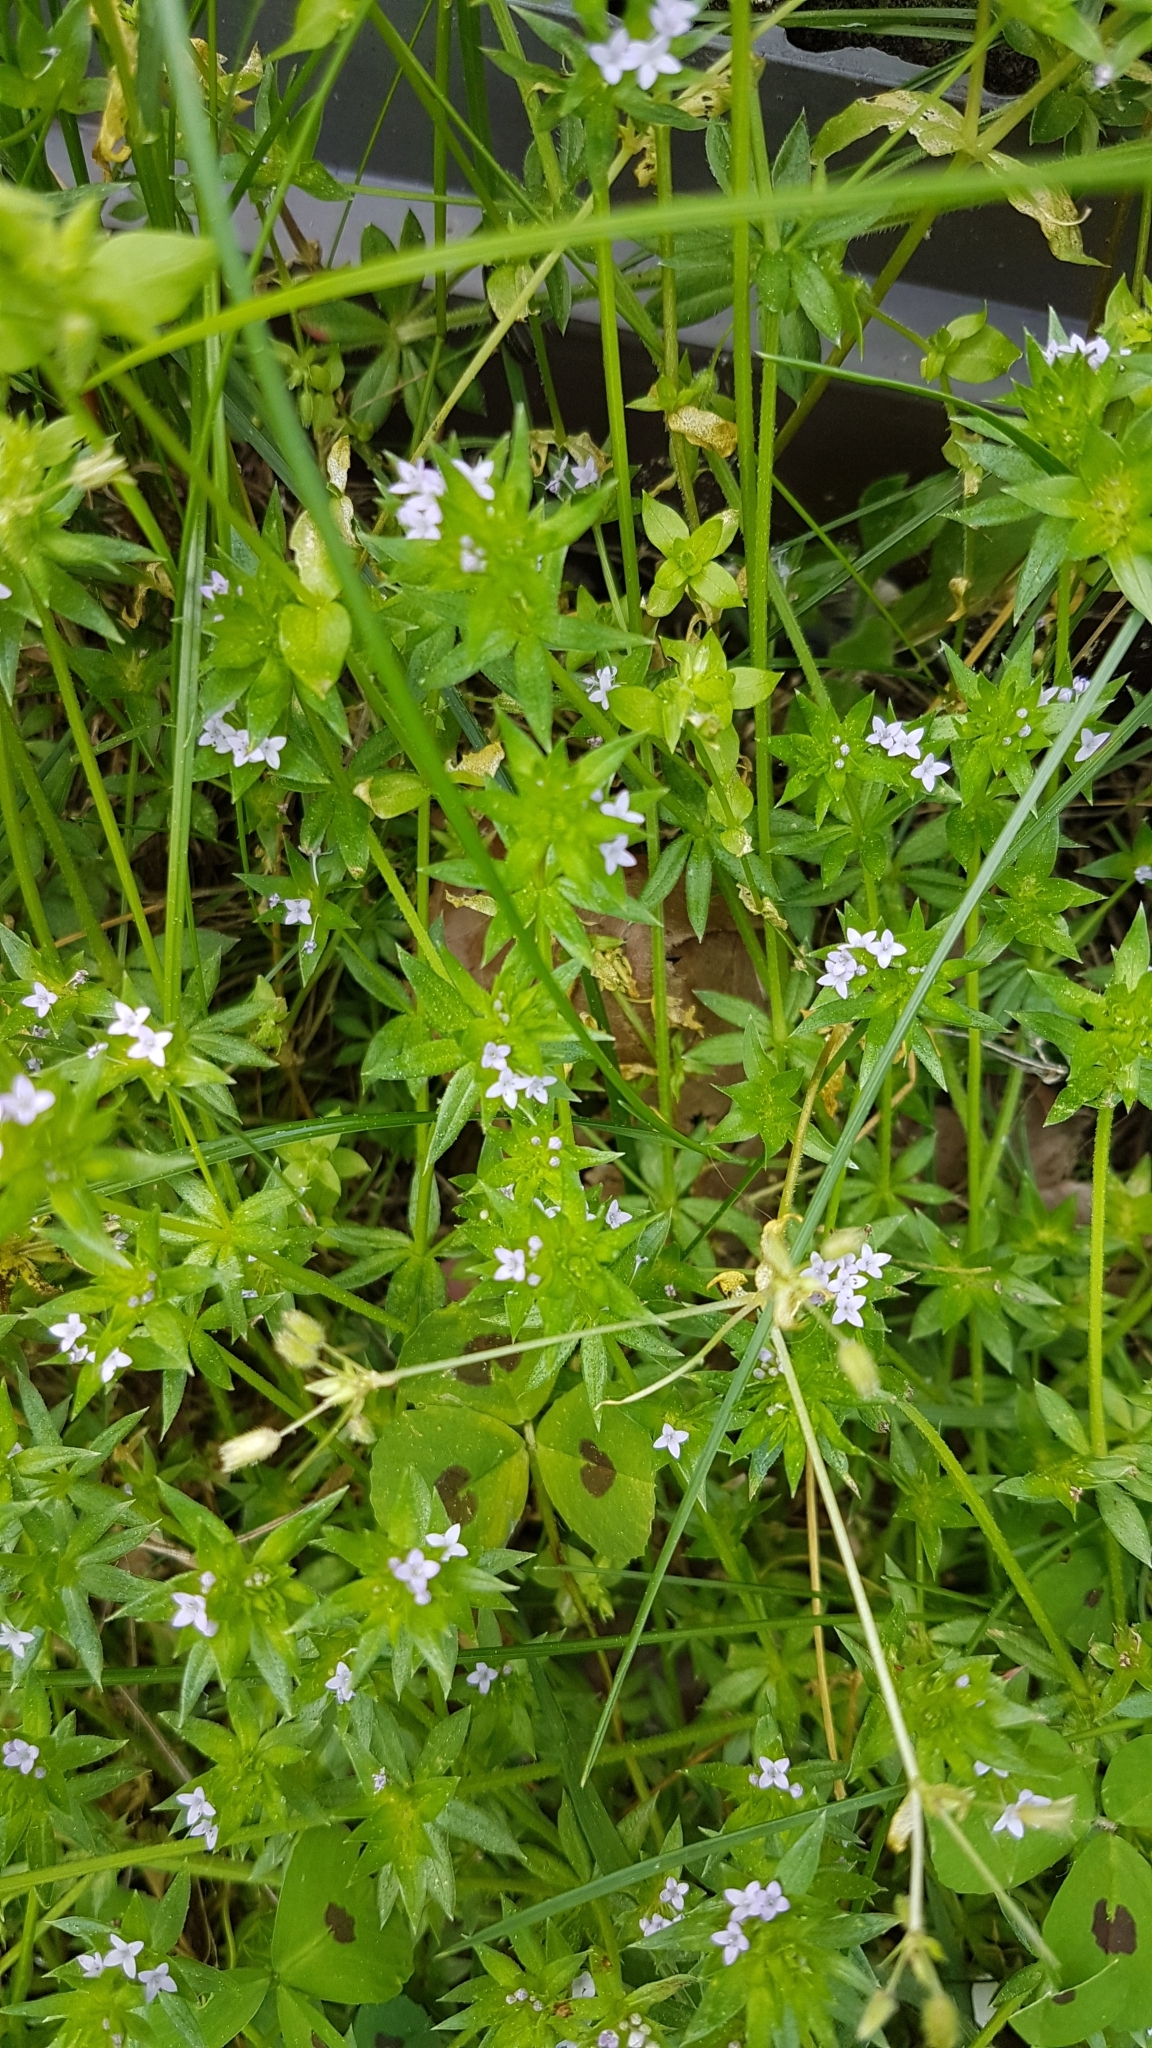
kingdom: Plantae
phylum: Tracheophyta
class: Magnoliopsida
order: Gentianales
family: Rubiaceae
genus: Sherardia
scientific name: Sherardia arvensis
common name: Field madder
